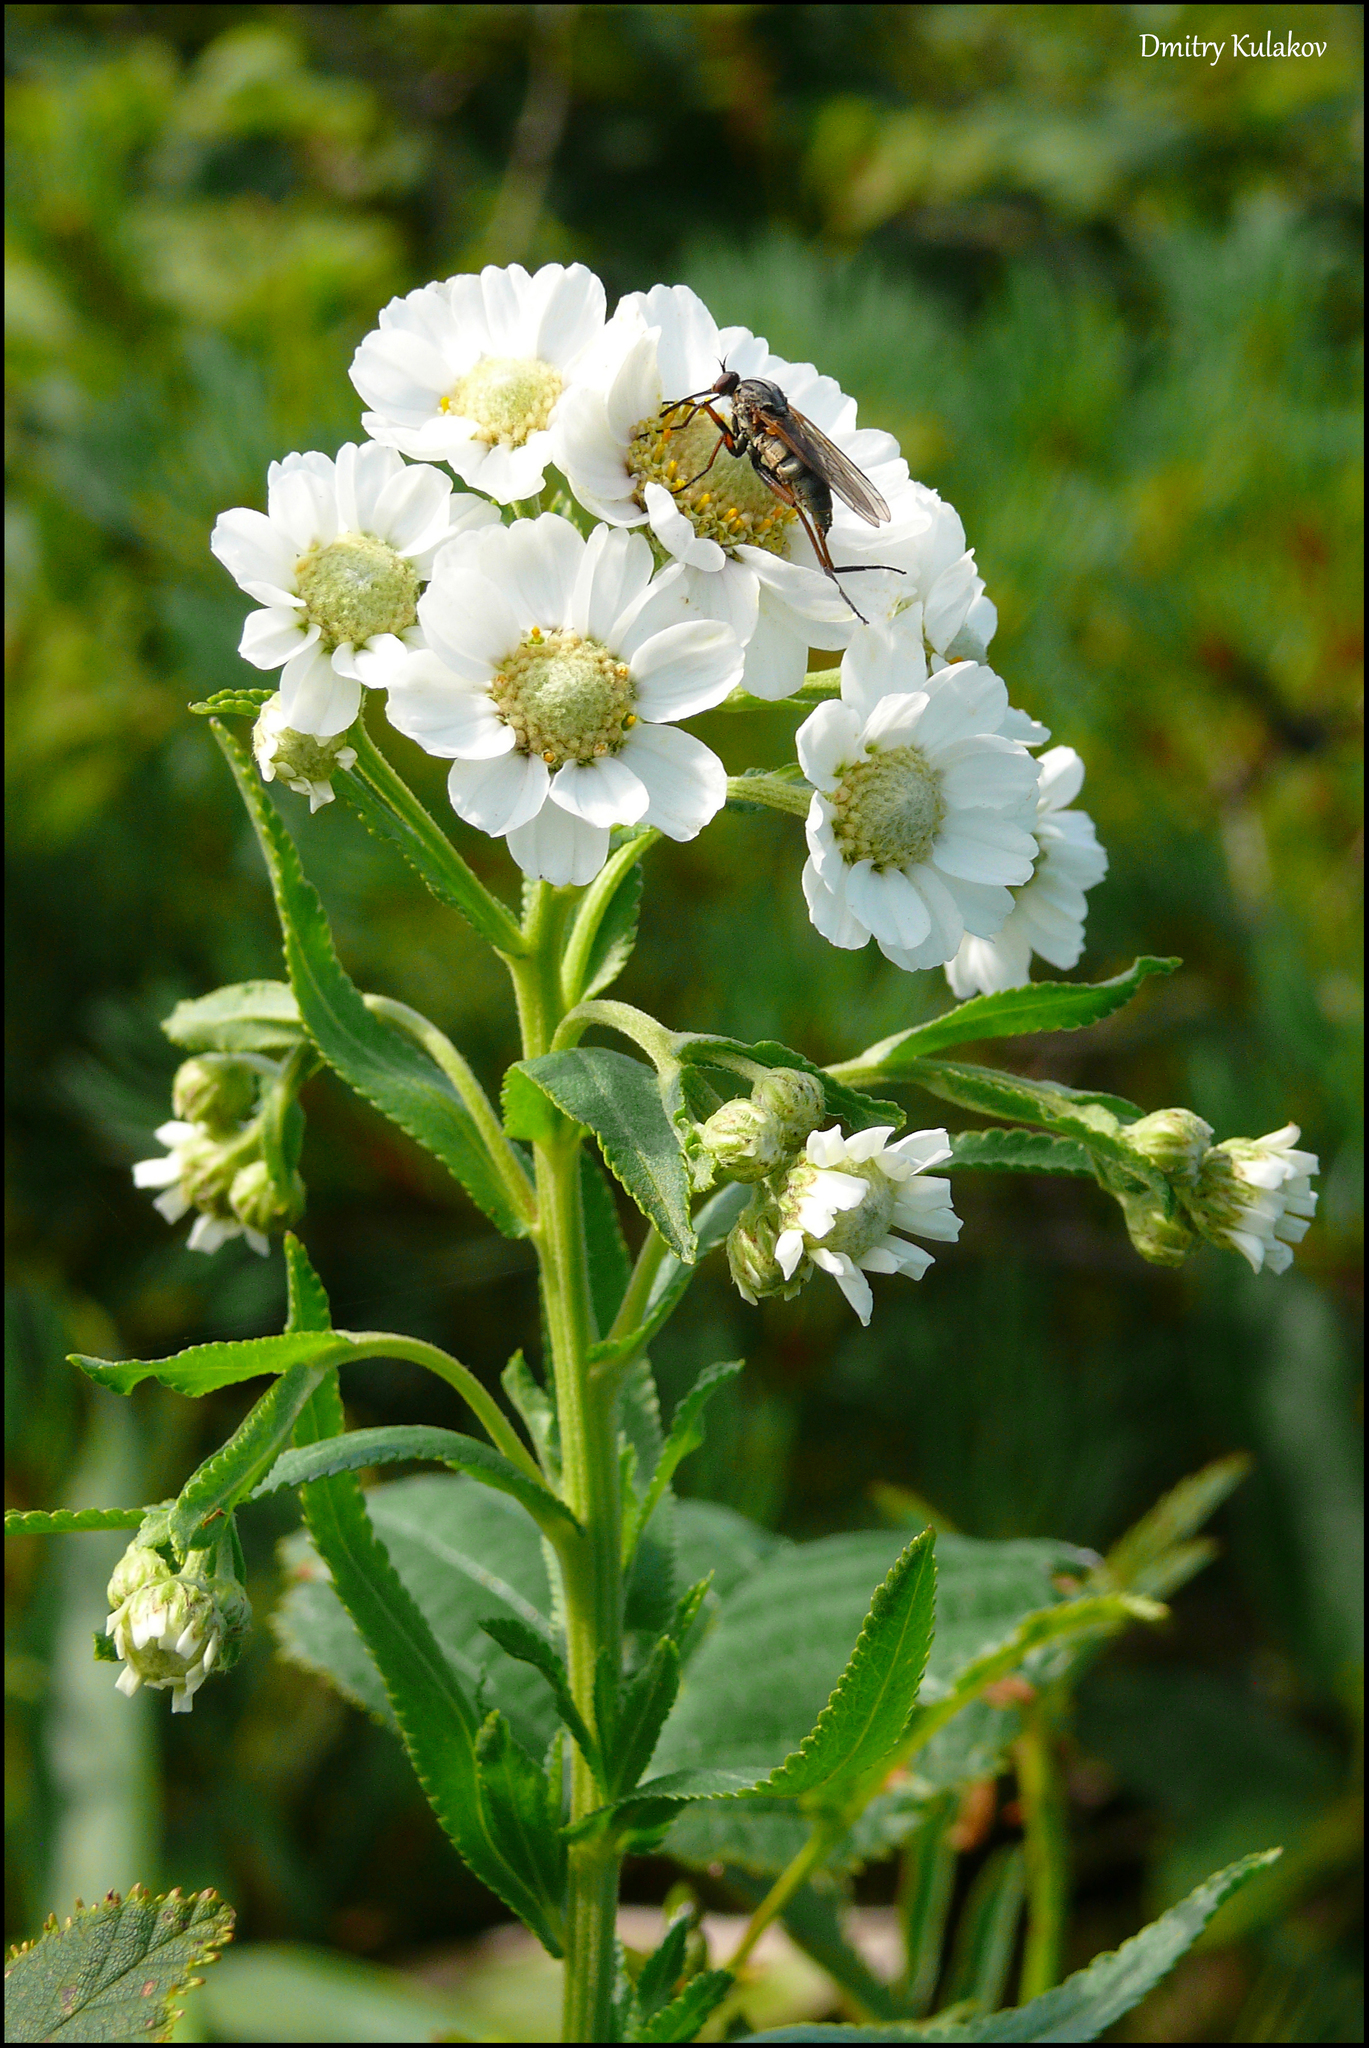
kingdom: Plantae
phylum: Tracheophyta
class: Magnoliopsida
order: Asterales
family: Asteraceae
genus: Achillea
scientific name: Achillea ptarmica
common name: Sneezeweed
